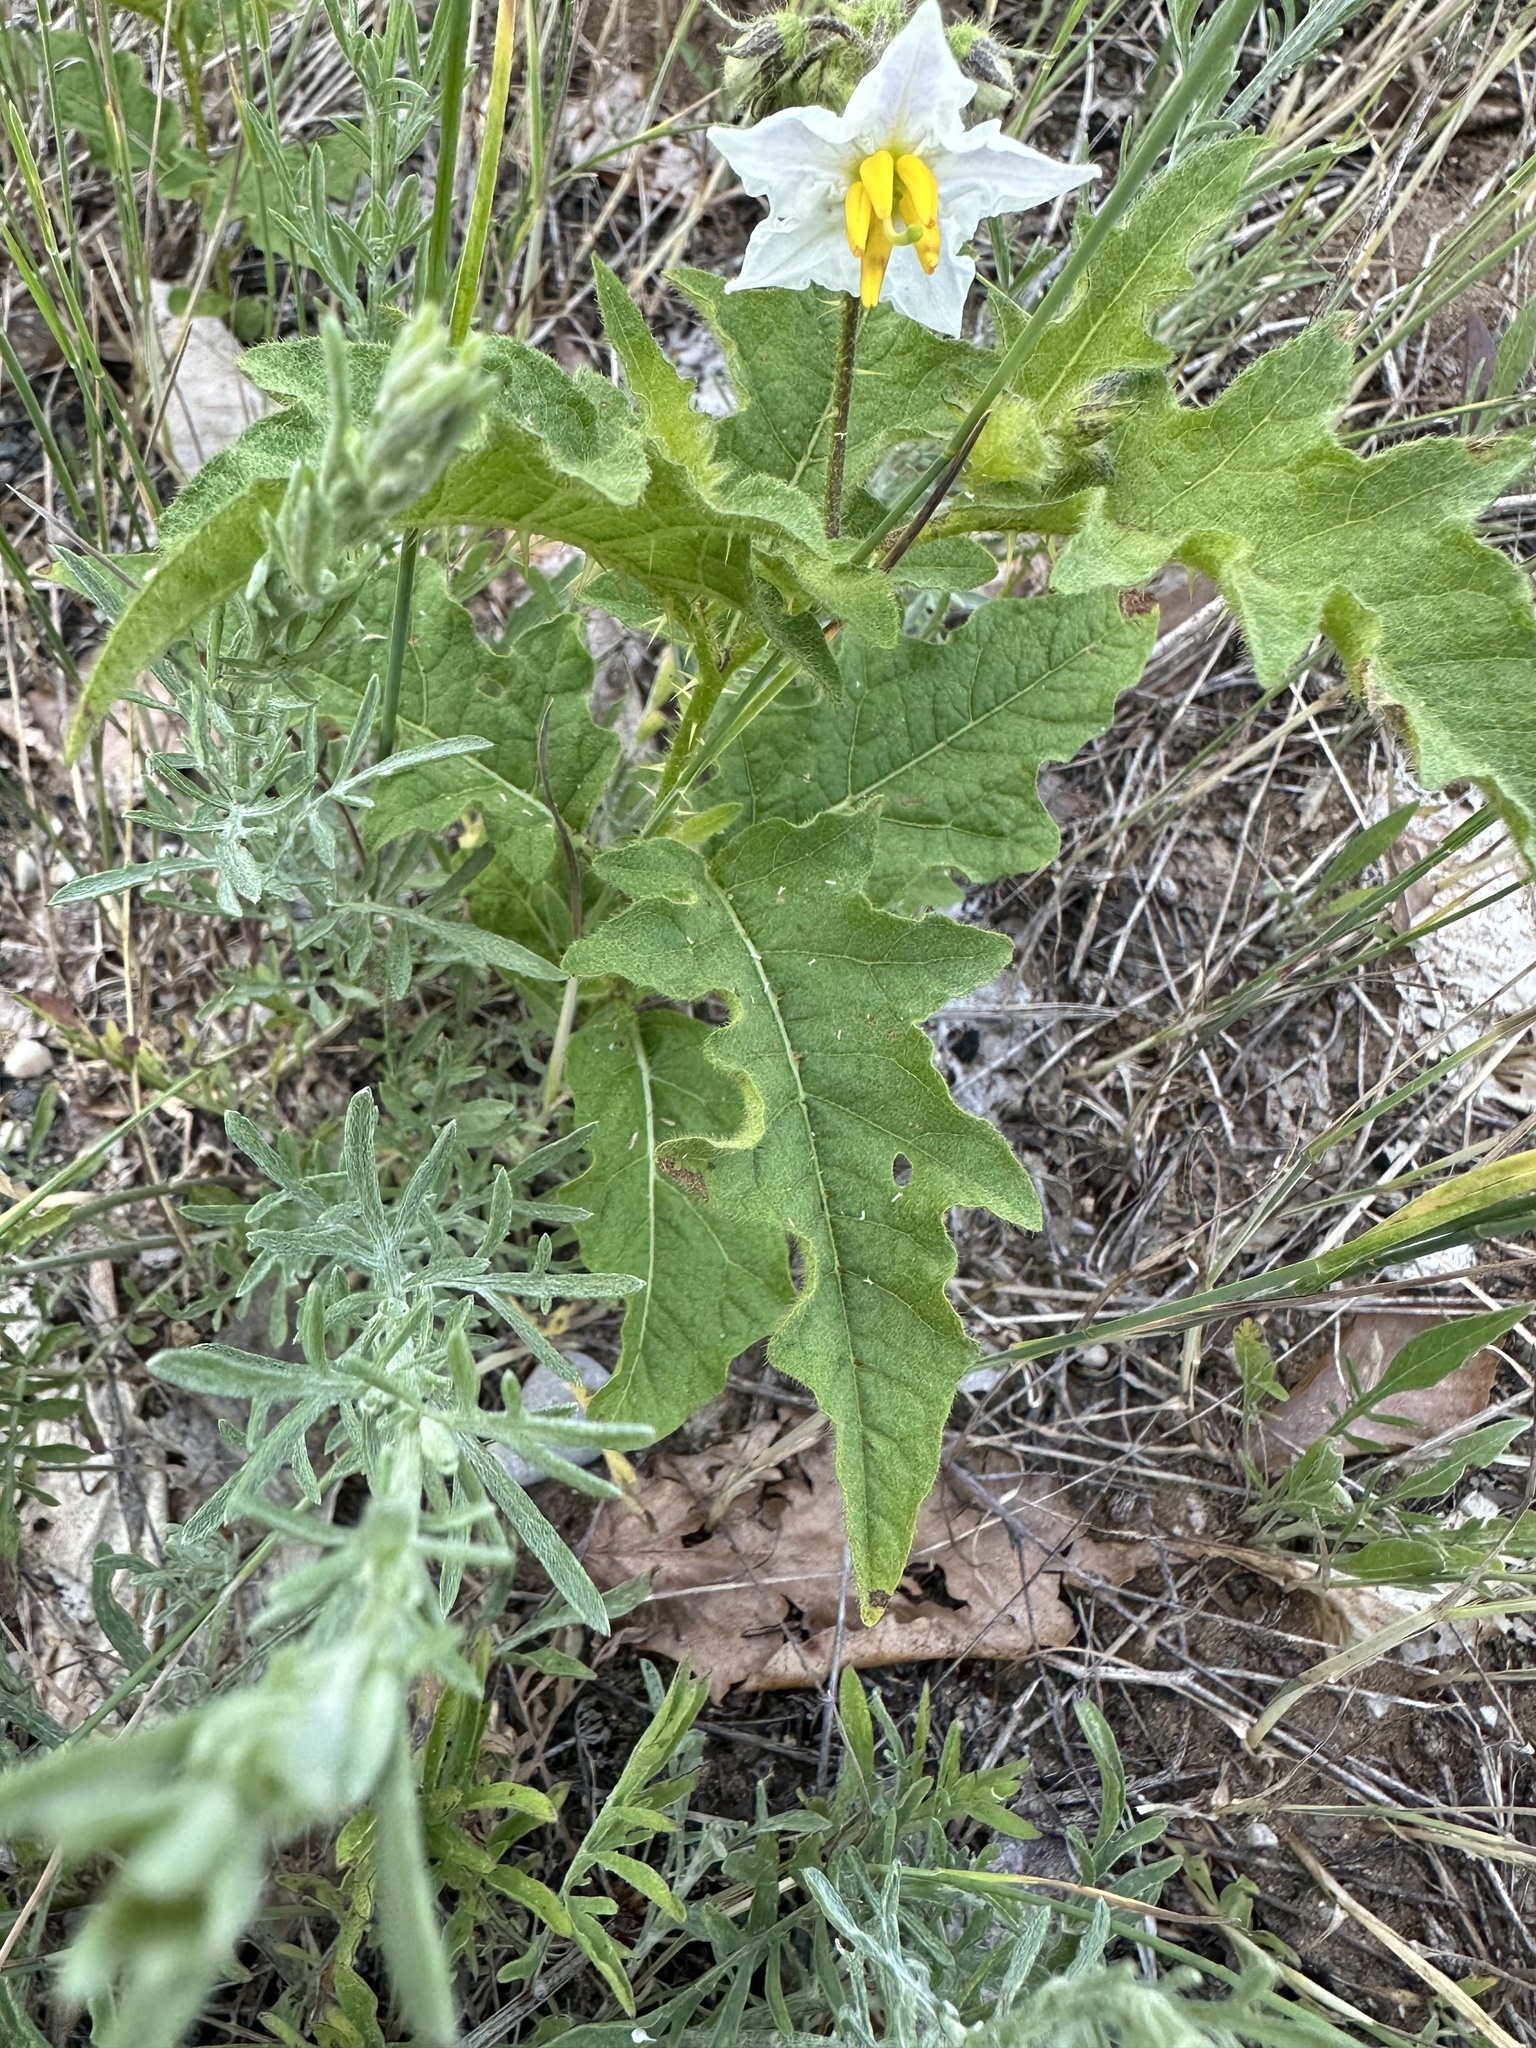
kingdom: Plantae
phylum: Tracheophyta
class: Magnoliopsida
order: Solanales
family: Solanaceae
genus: Solanum
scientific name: Solanum carolinense
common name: Horse-nettle
